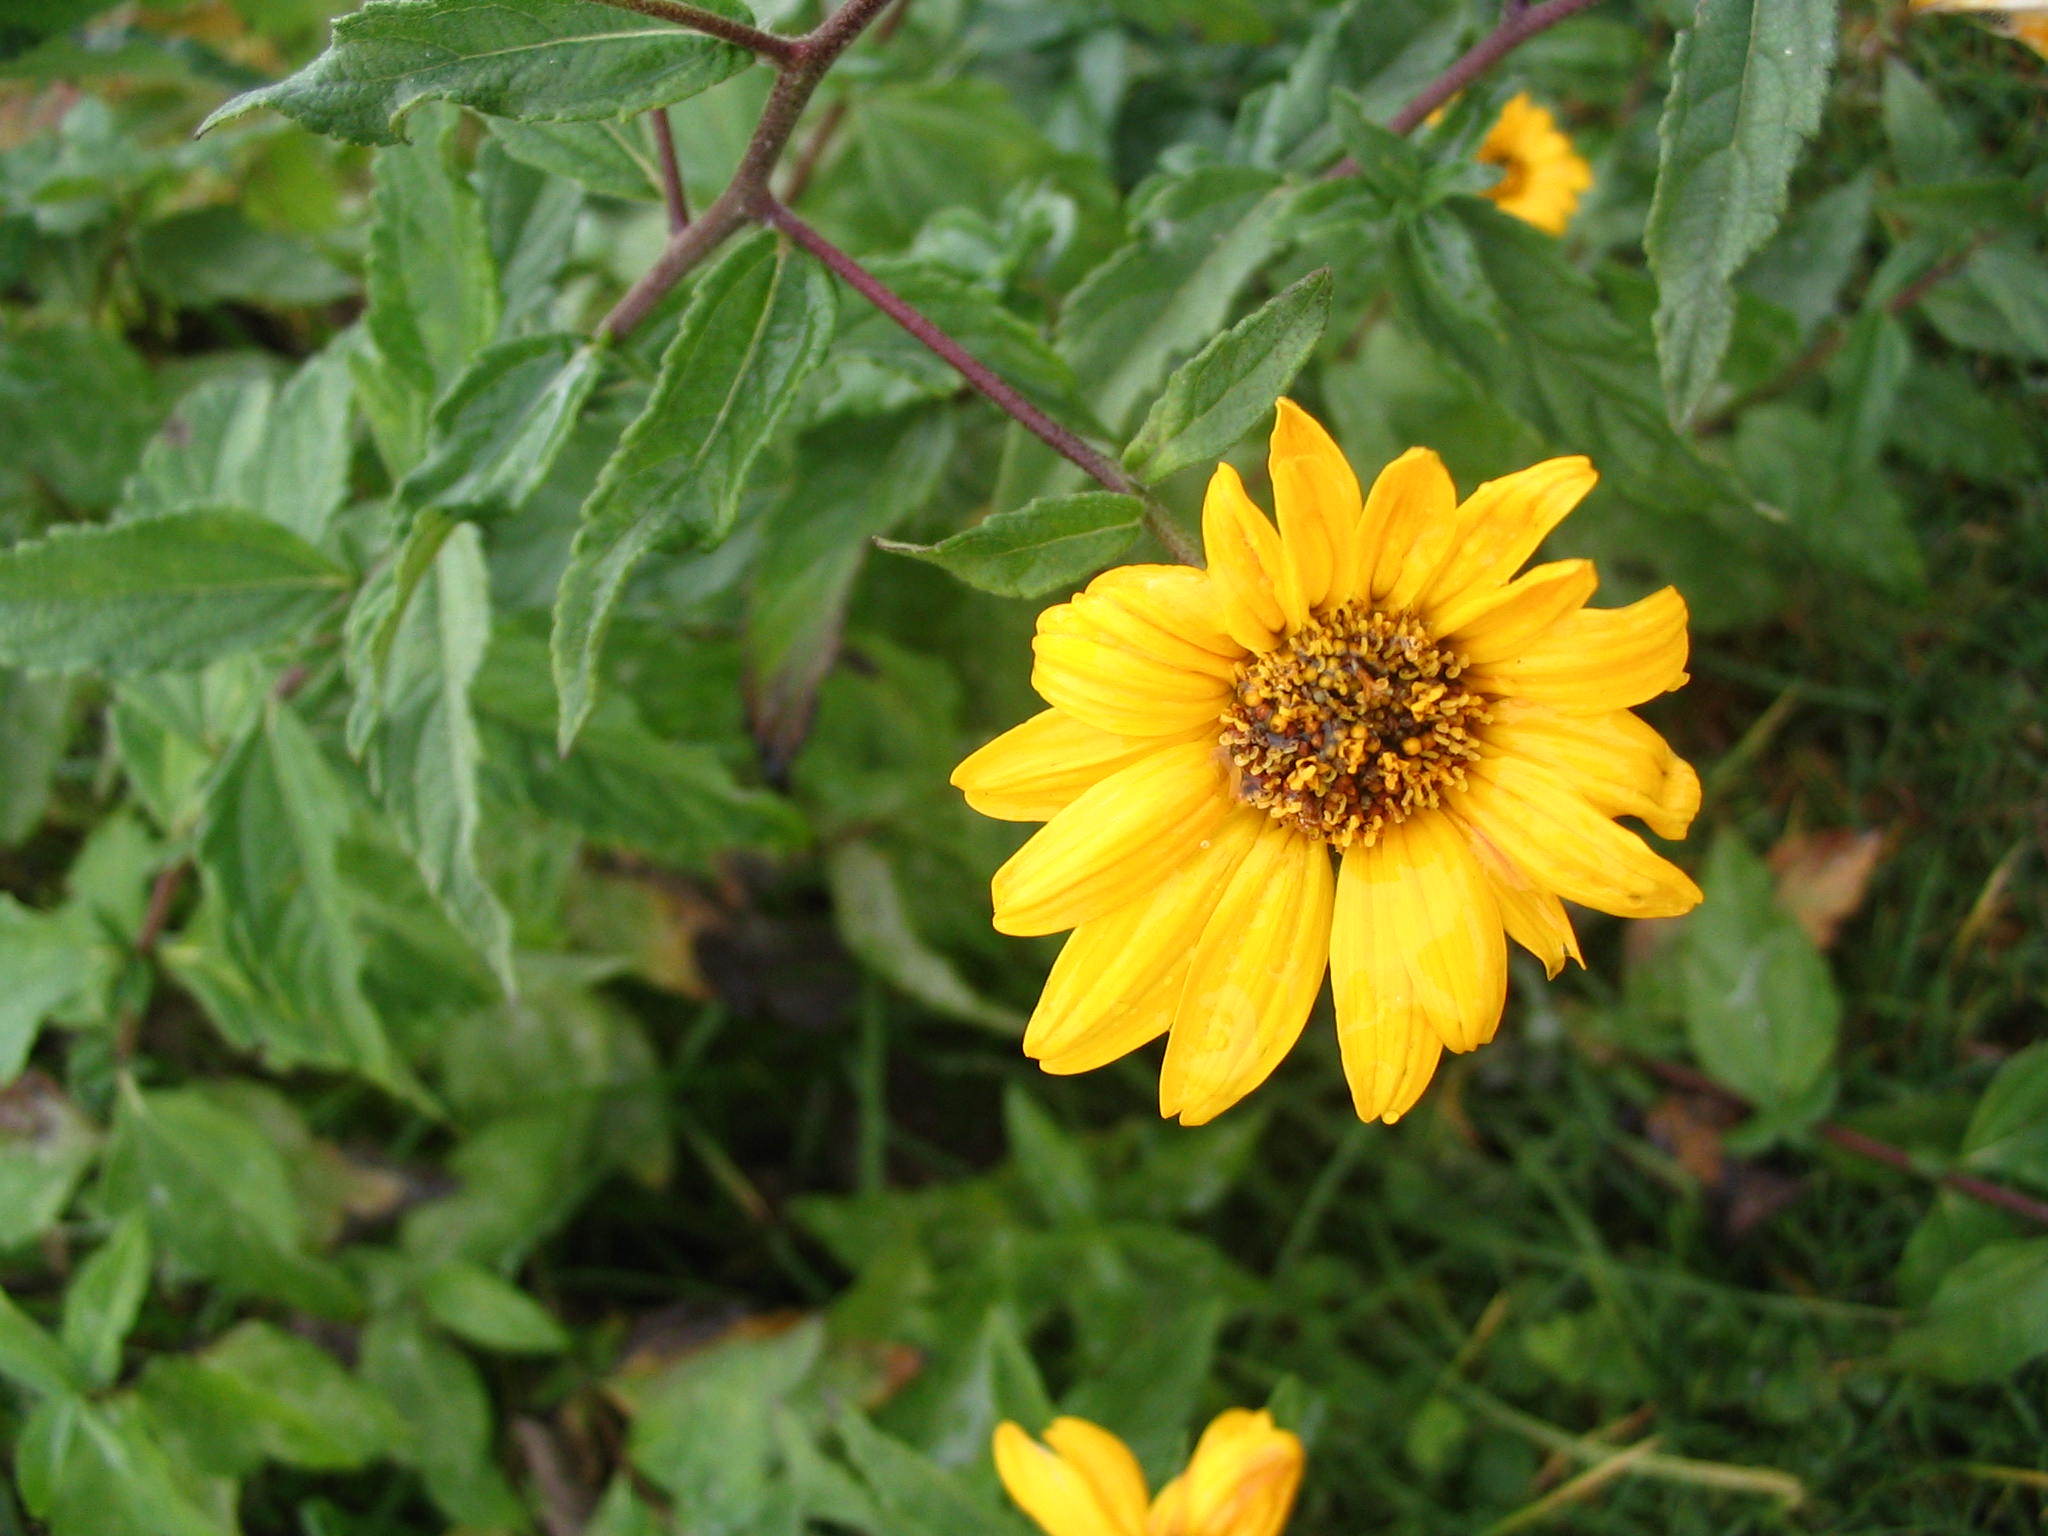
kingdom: Plantae
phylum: Tracheophyta
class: Magnoliopsida
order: Asterales
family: Asteraceae
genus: Aldama
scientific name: Aldama helianthoides
